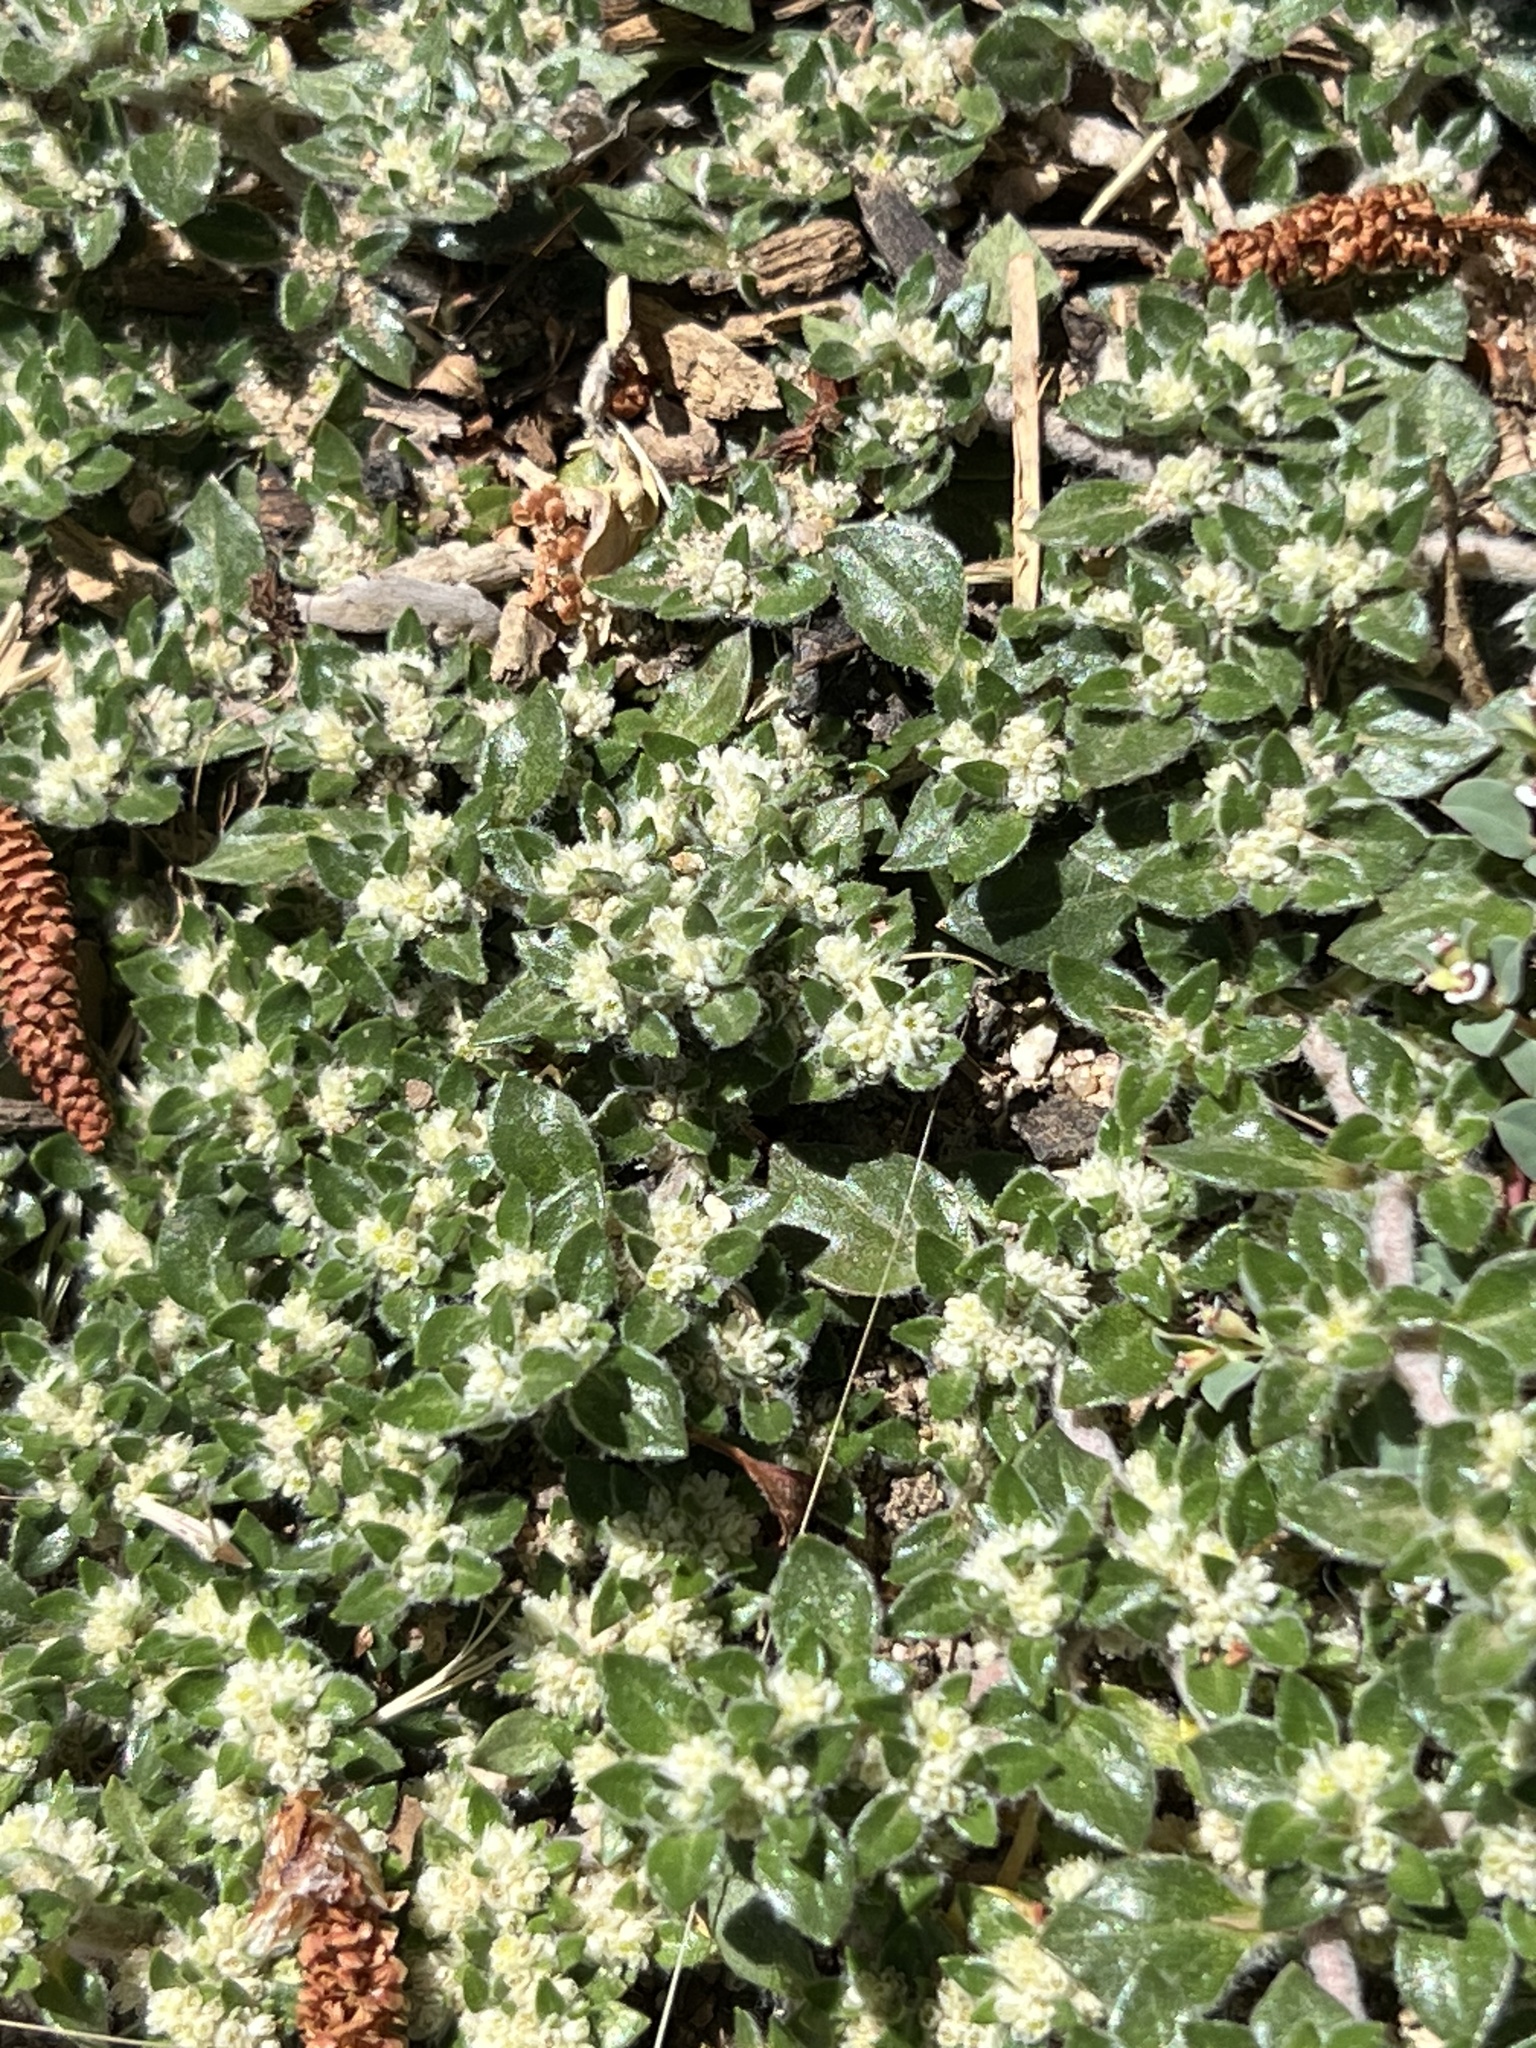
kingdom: Plantae
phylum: Tracheophyta
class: Magnoliopsida
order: Caryophyllales
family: Amaranthaceae
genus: Guilleminea
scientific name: Guilleminea densa
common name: Small matweed
